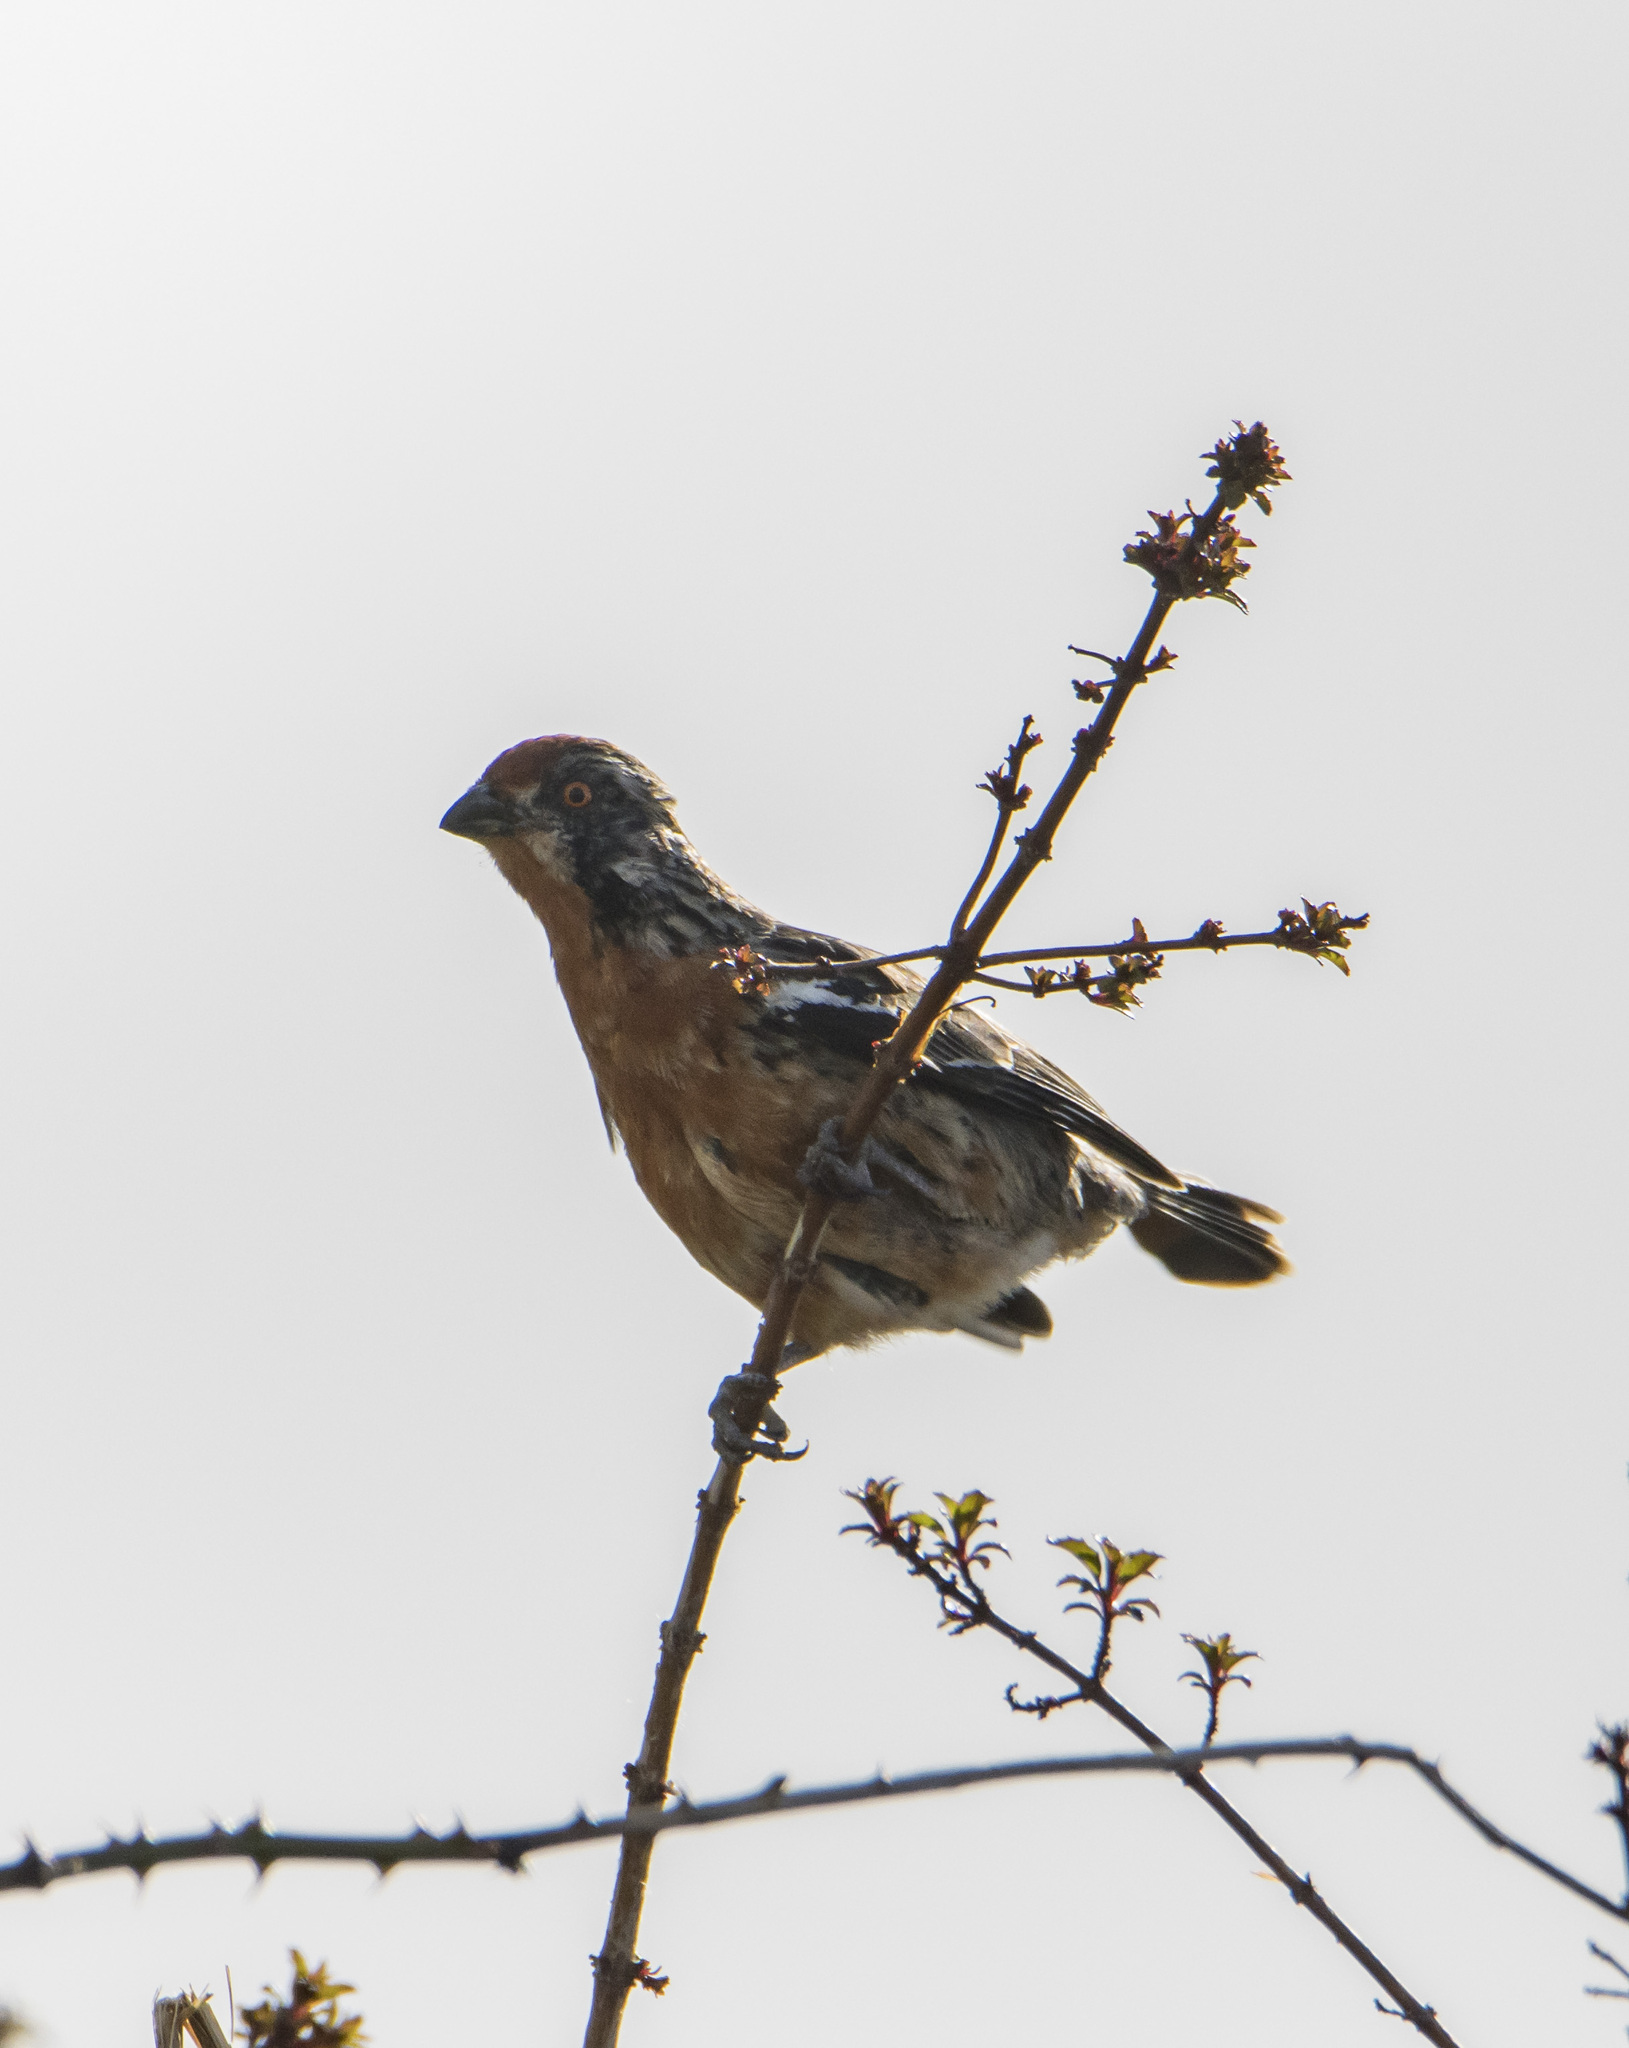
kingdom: Animalia
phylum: Chordata
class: Aves
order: Passeriformes
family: Cotingidae
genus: Phytotoma
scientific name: Phytotoma rara
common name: Rufous-tailed plantcutter
